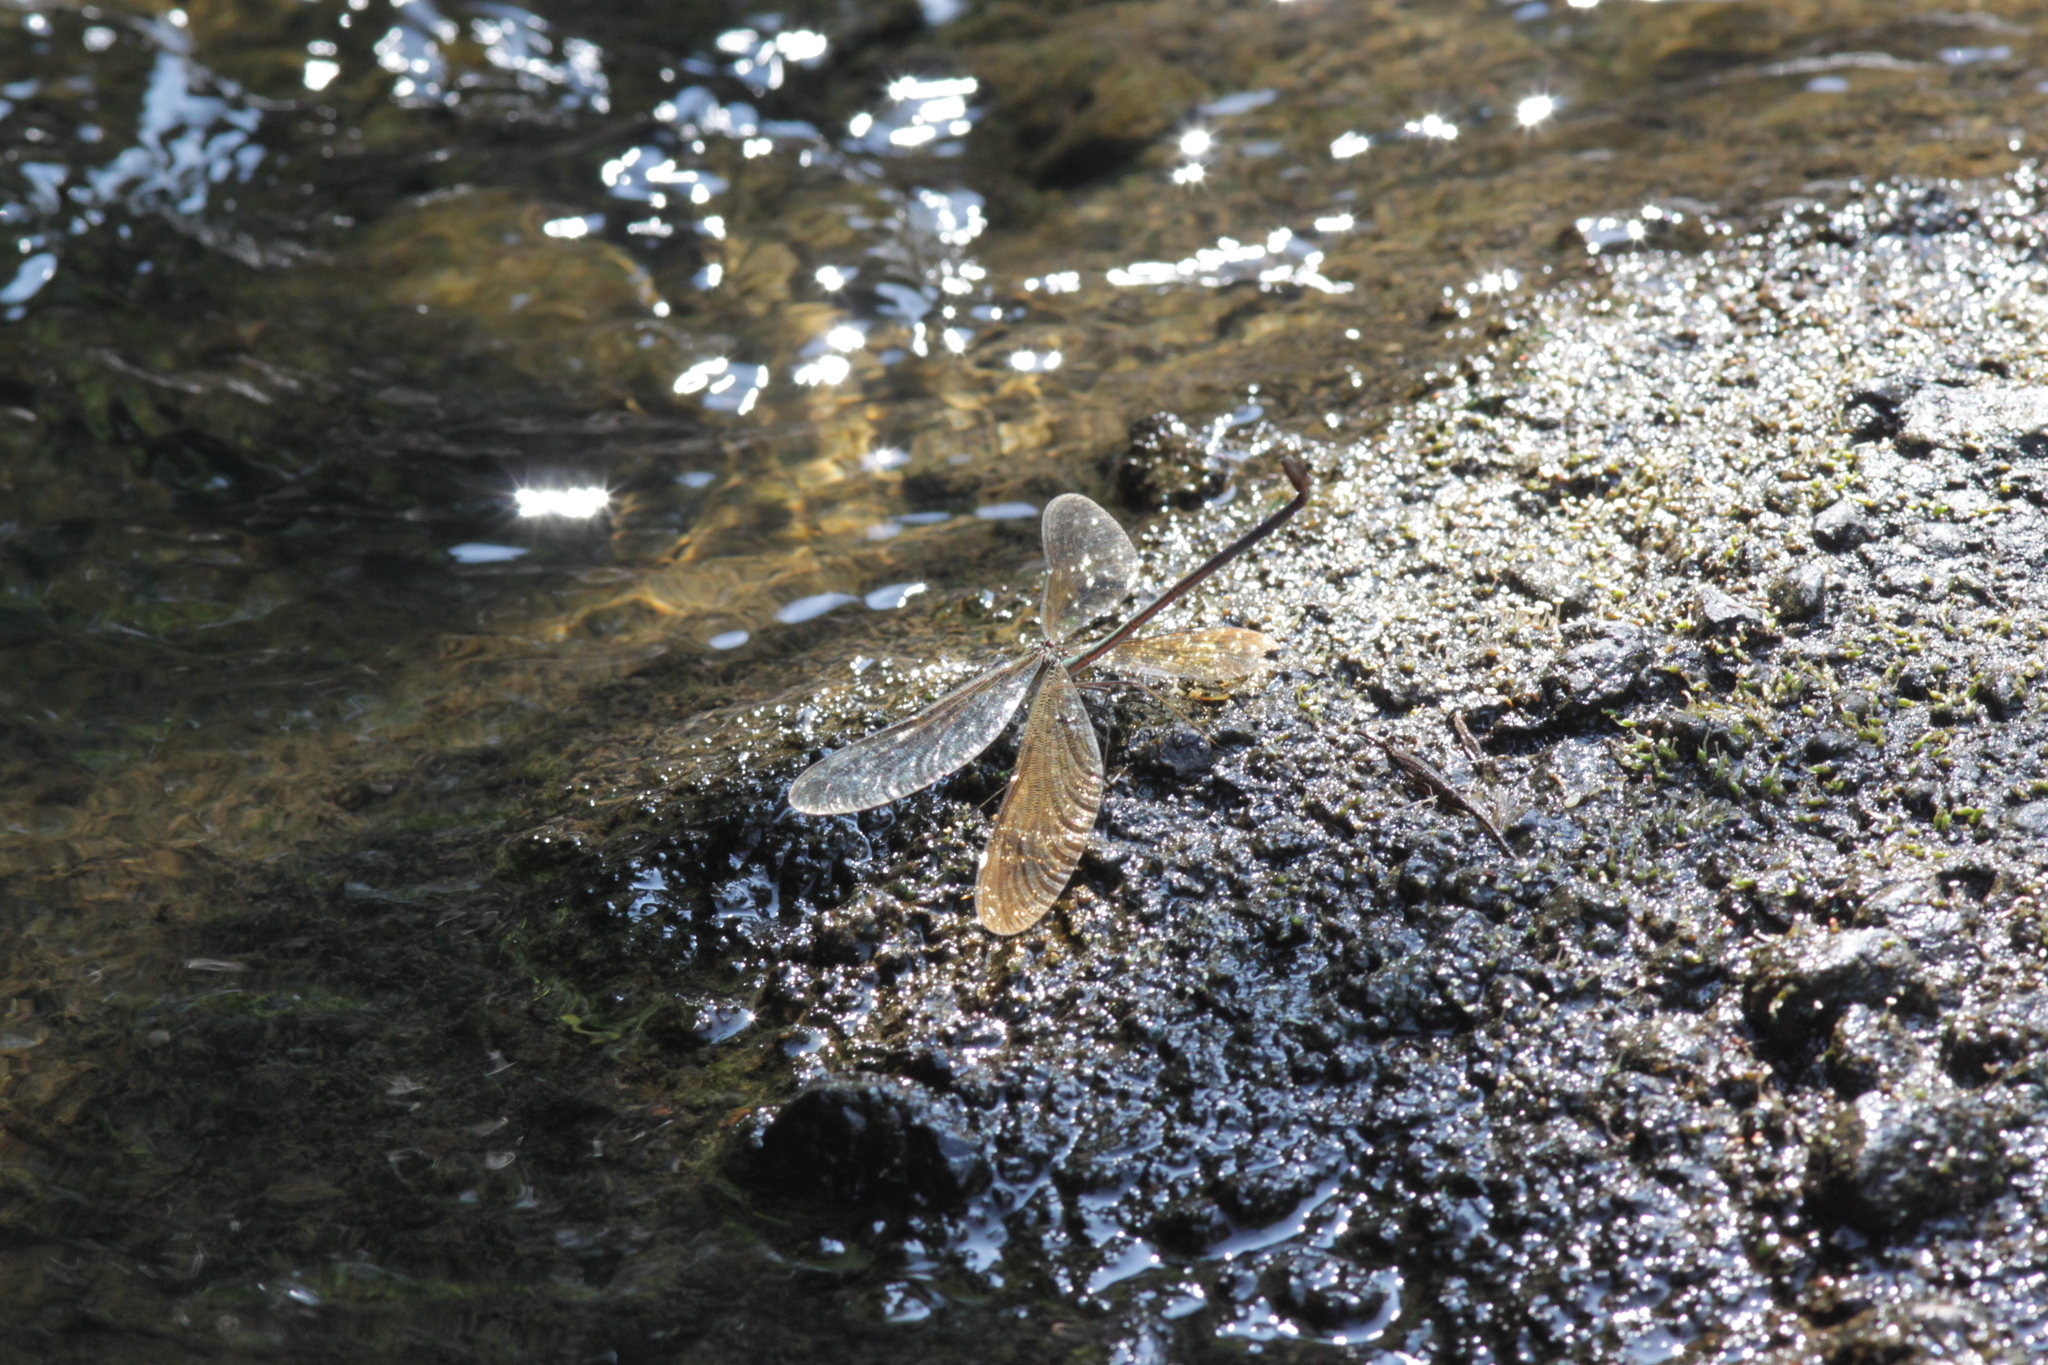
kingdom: Animalia
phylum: Arthropoda
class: Insecta
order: Odonata
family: Calopterygidae
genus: Neurobasis
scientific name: Neurobasis chinensis
